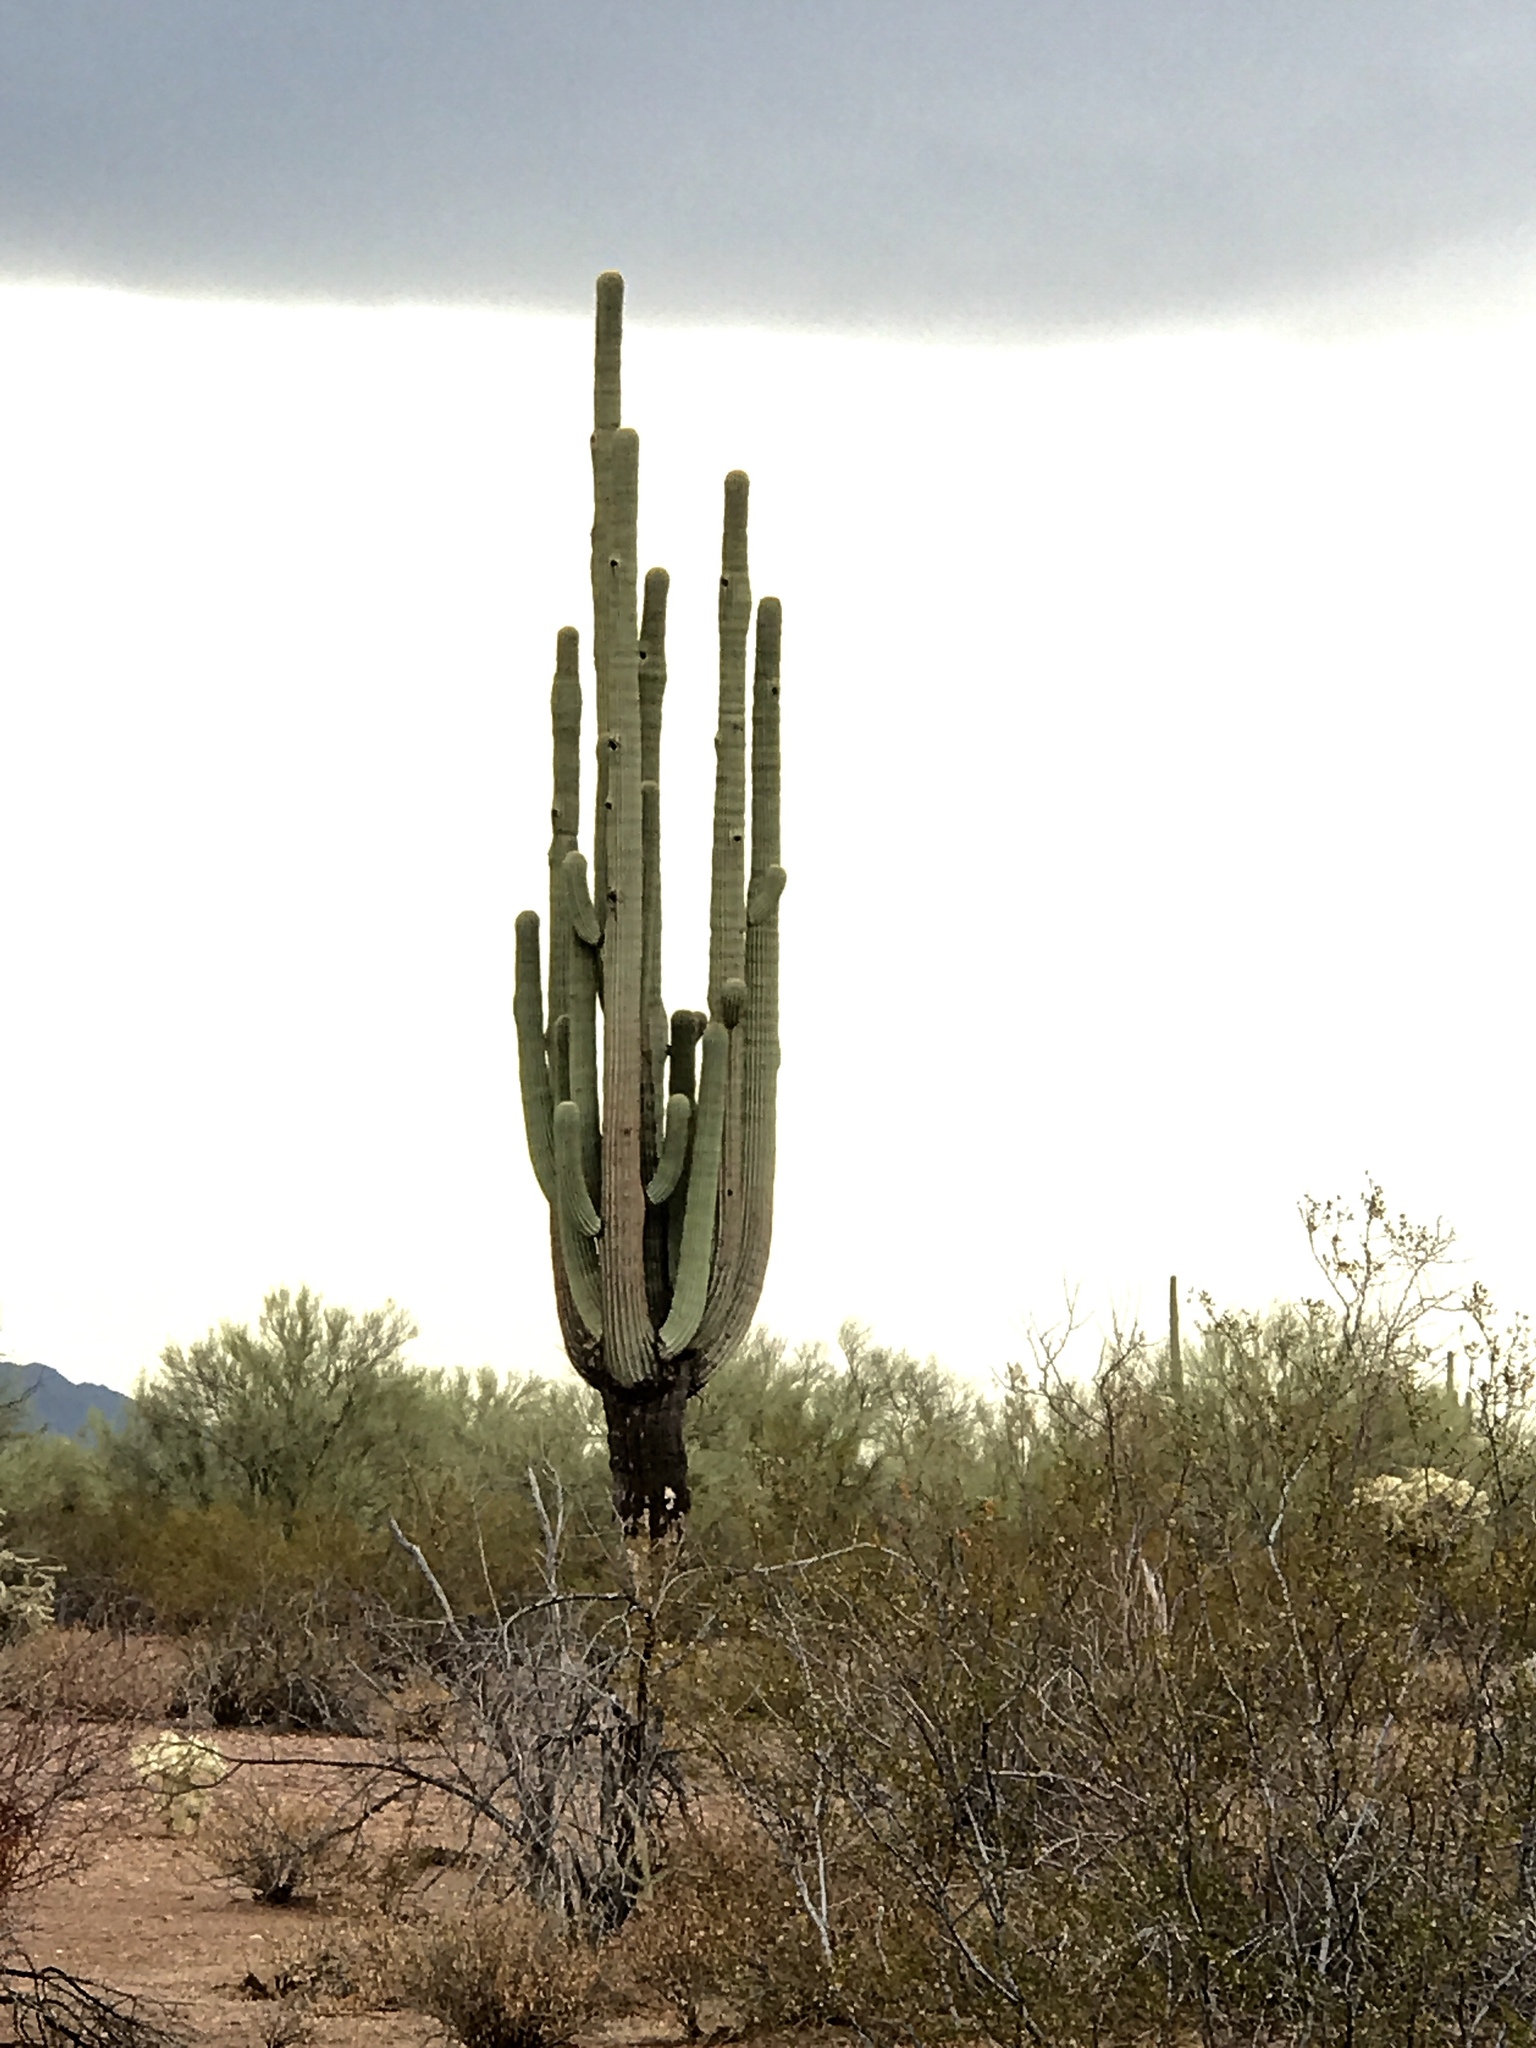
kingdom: Plantae
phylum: Tracheophyta
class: Magnoliopsida
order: Caryophyllales
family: Cactaceae
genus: Carnegiea
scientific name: Carnegiea gigantea
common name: Saguaro
